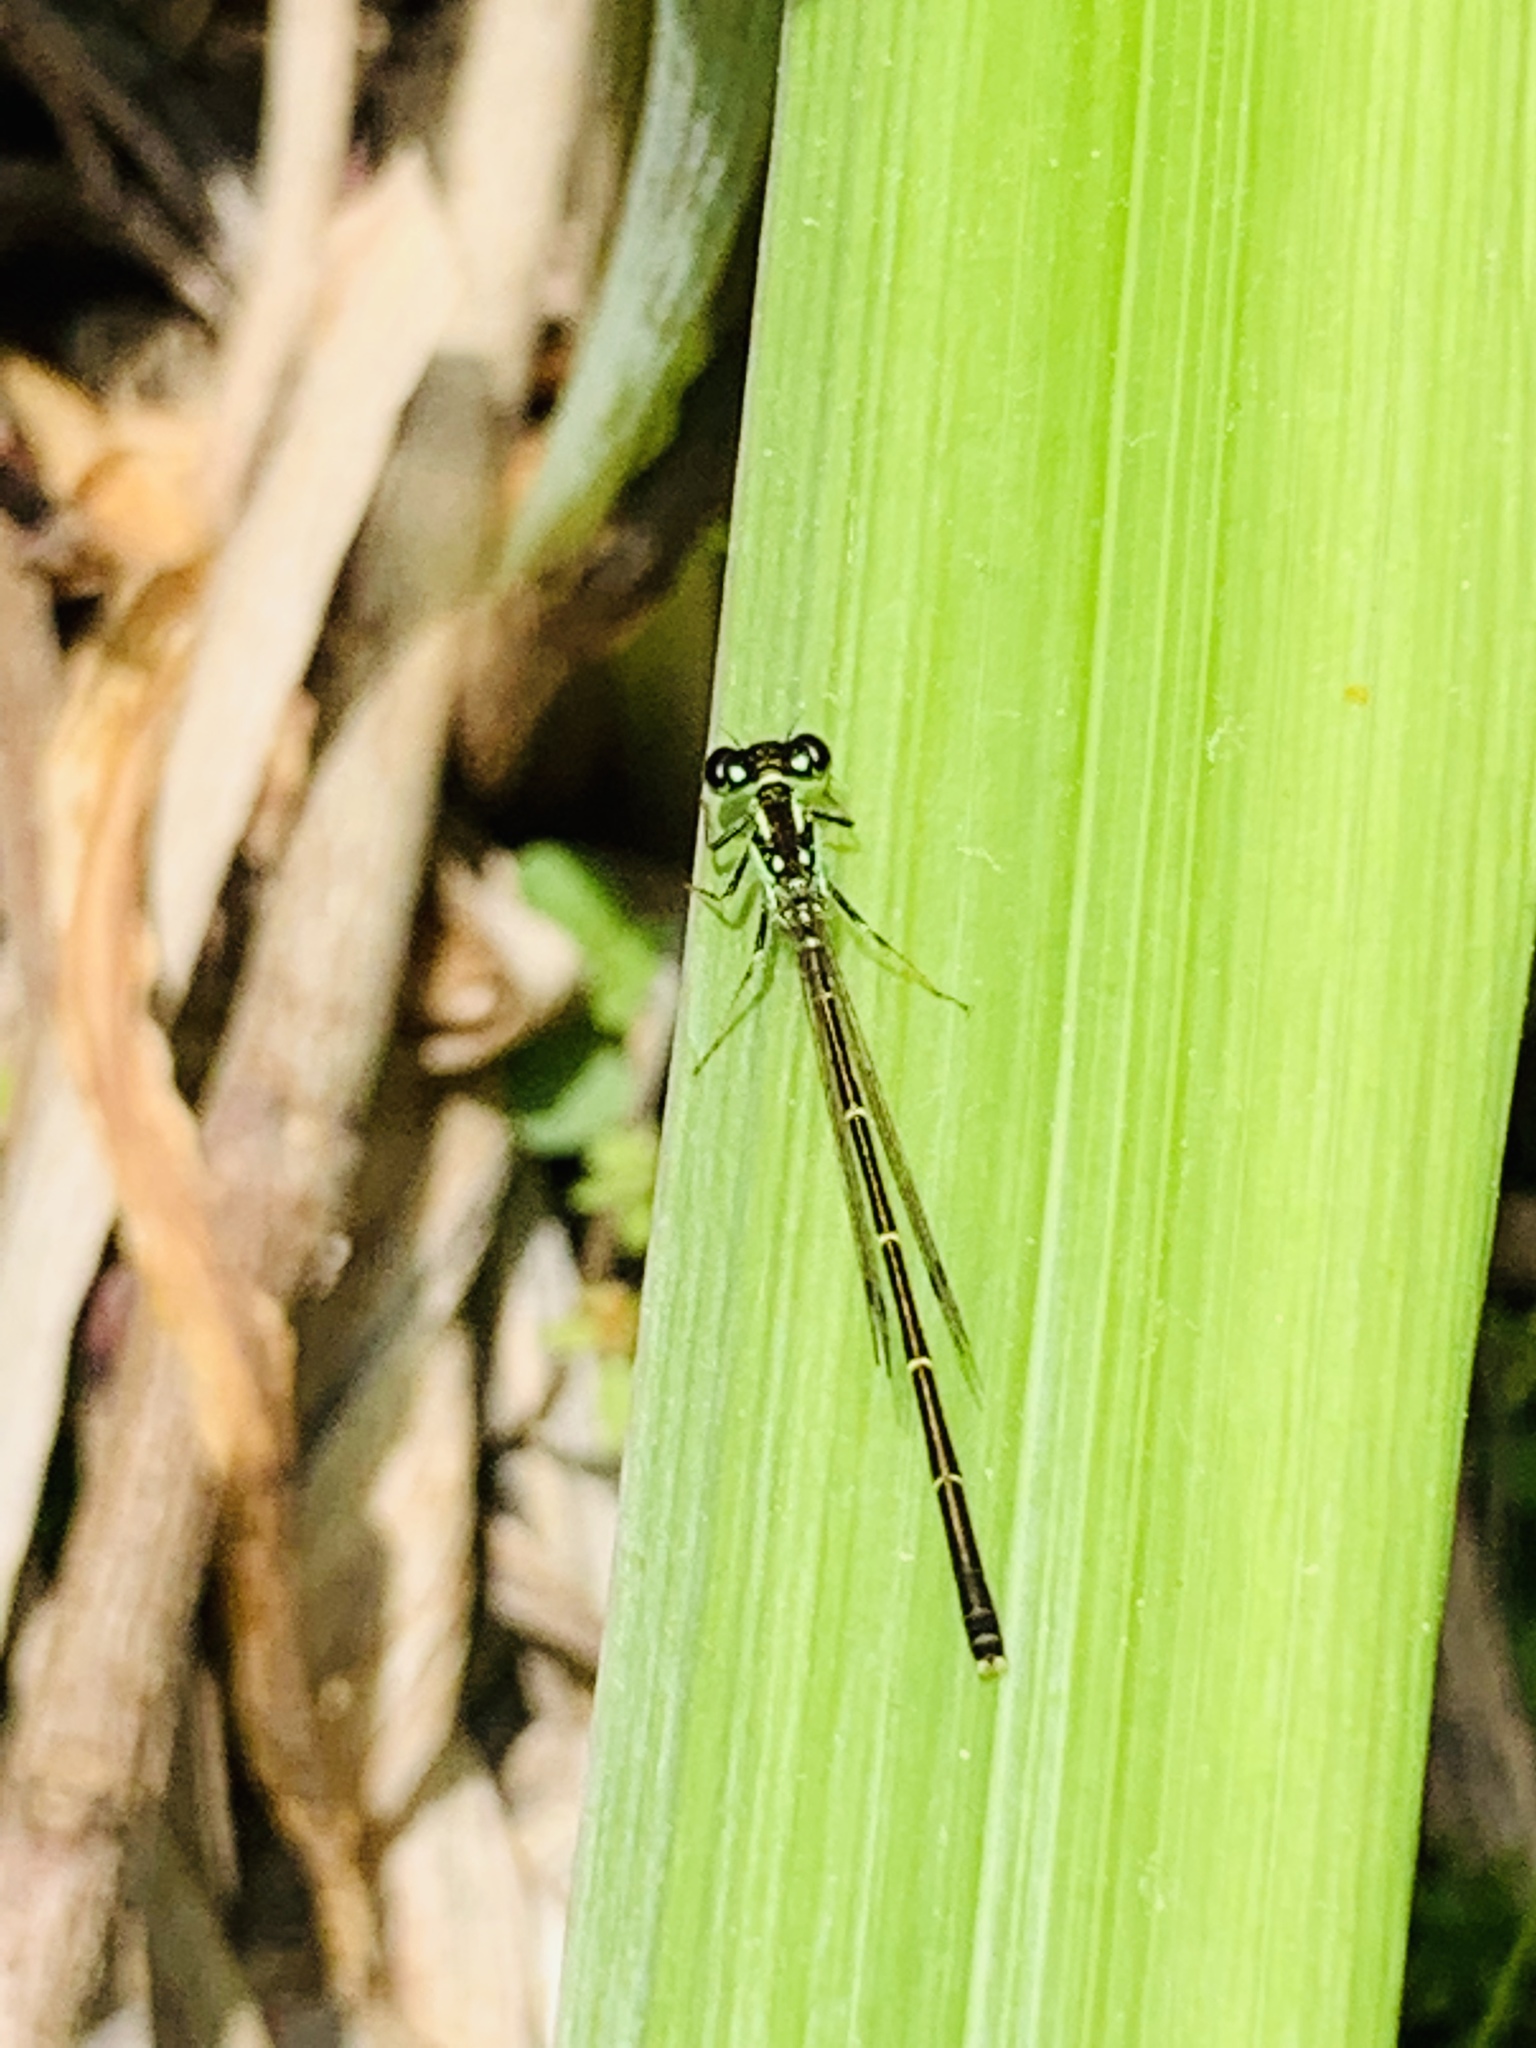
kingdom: Animalia
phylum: Arthropoda
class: Insecta
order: Odonata
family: Coenagrionidae
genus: Ischnura
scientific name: Ischnura posita
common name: Fragile forktail
